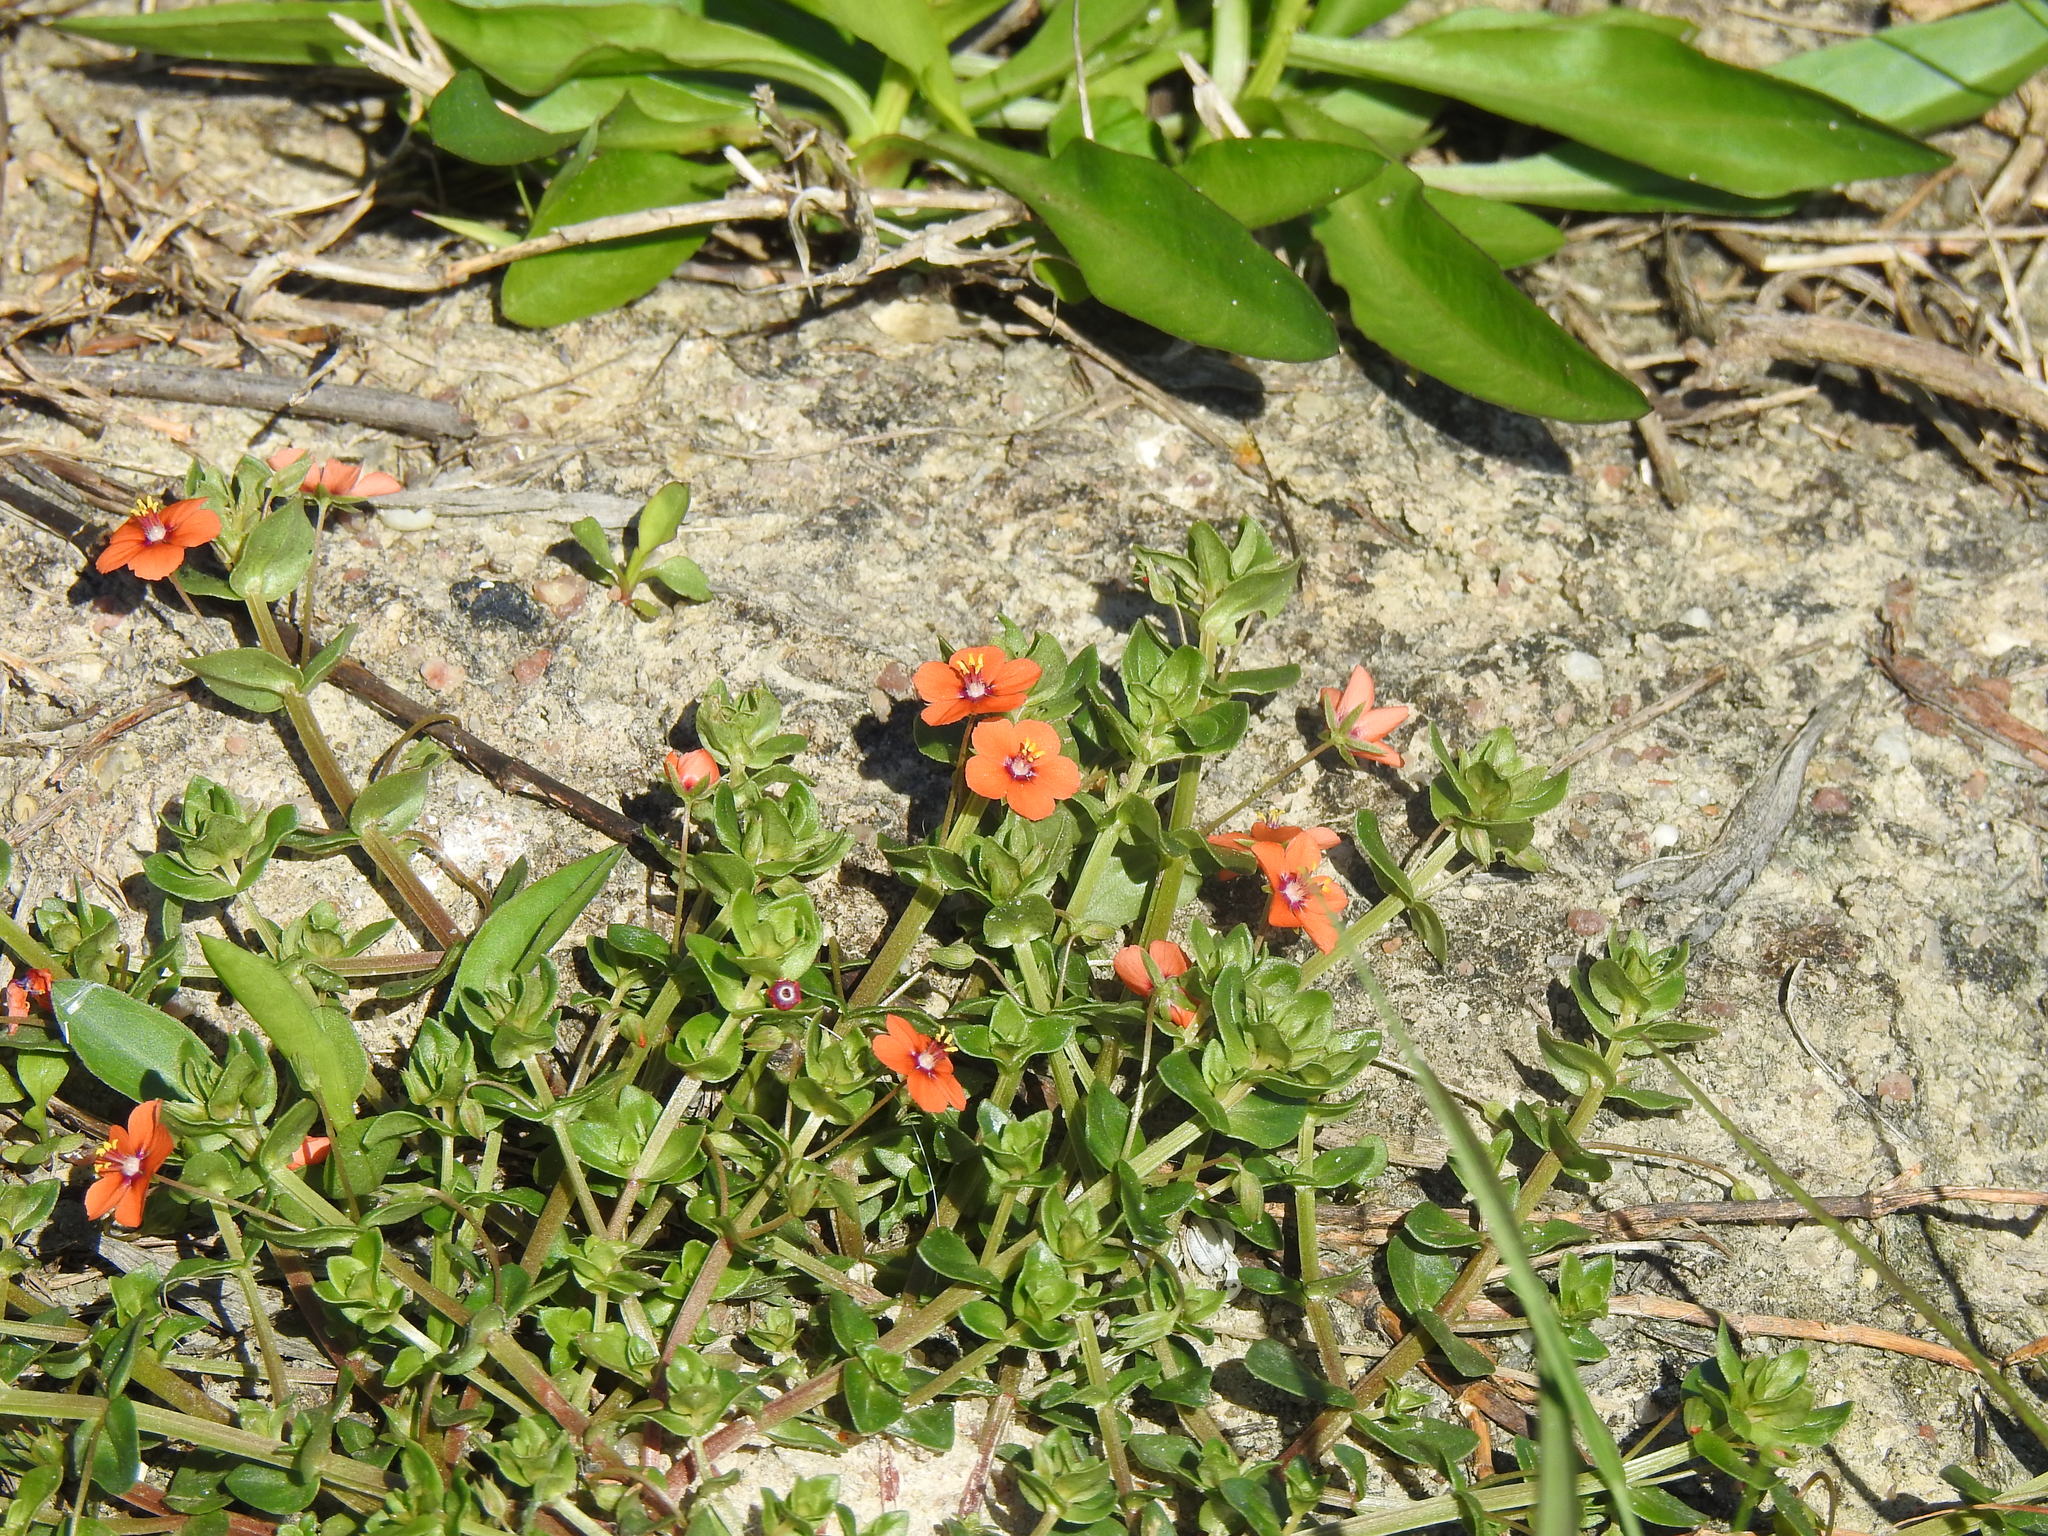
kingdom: Plantae
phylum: Tracheophyta
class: Magnoliopsida
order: Ericales
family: Primulaceae
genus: Lysimachia
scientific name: Lysimachia arvensis
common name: Scarlet pimpernel
